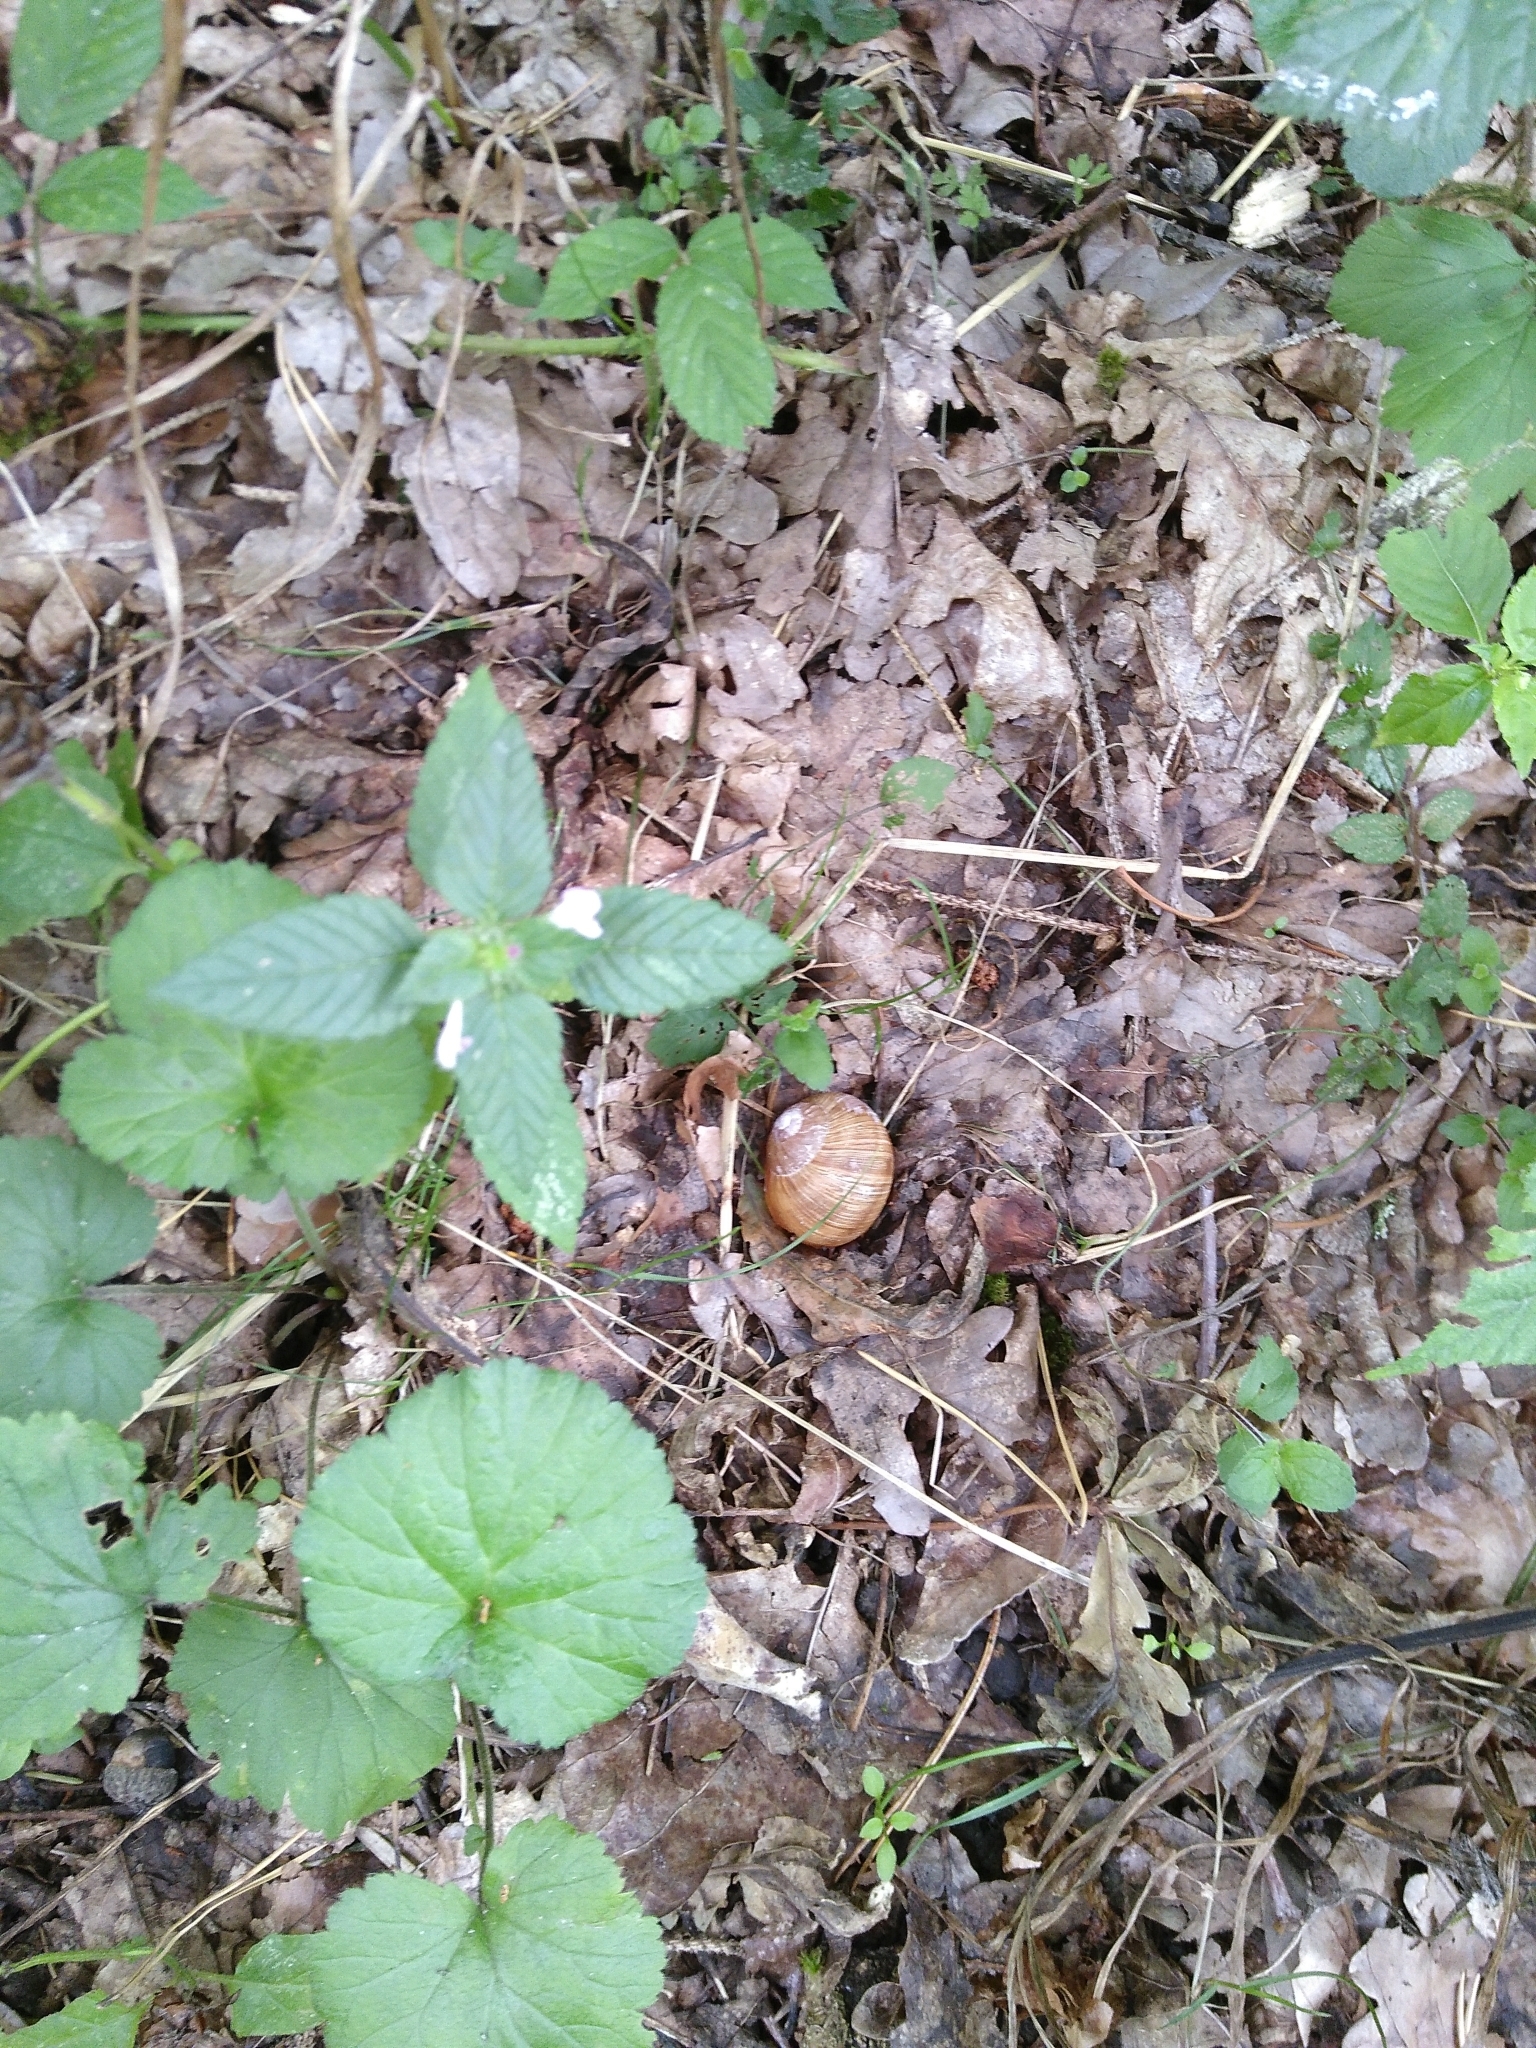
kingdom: Animalia
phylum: Mollusca
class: Gastropoda
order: Stylommatophora
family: Helicidae
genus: Helix
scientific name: Helix pomatia
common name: Roman snail
